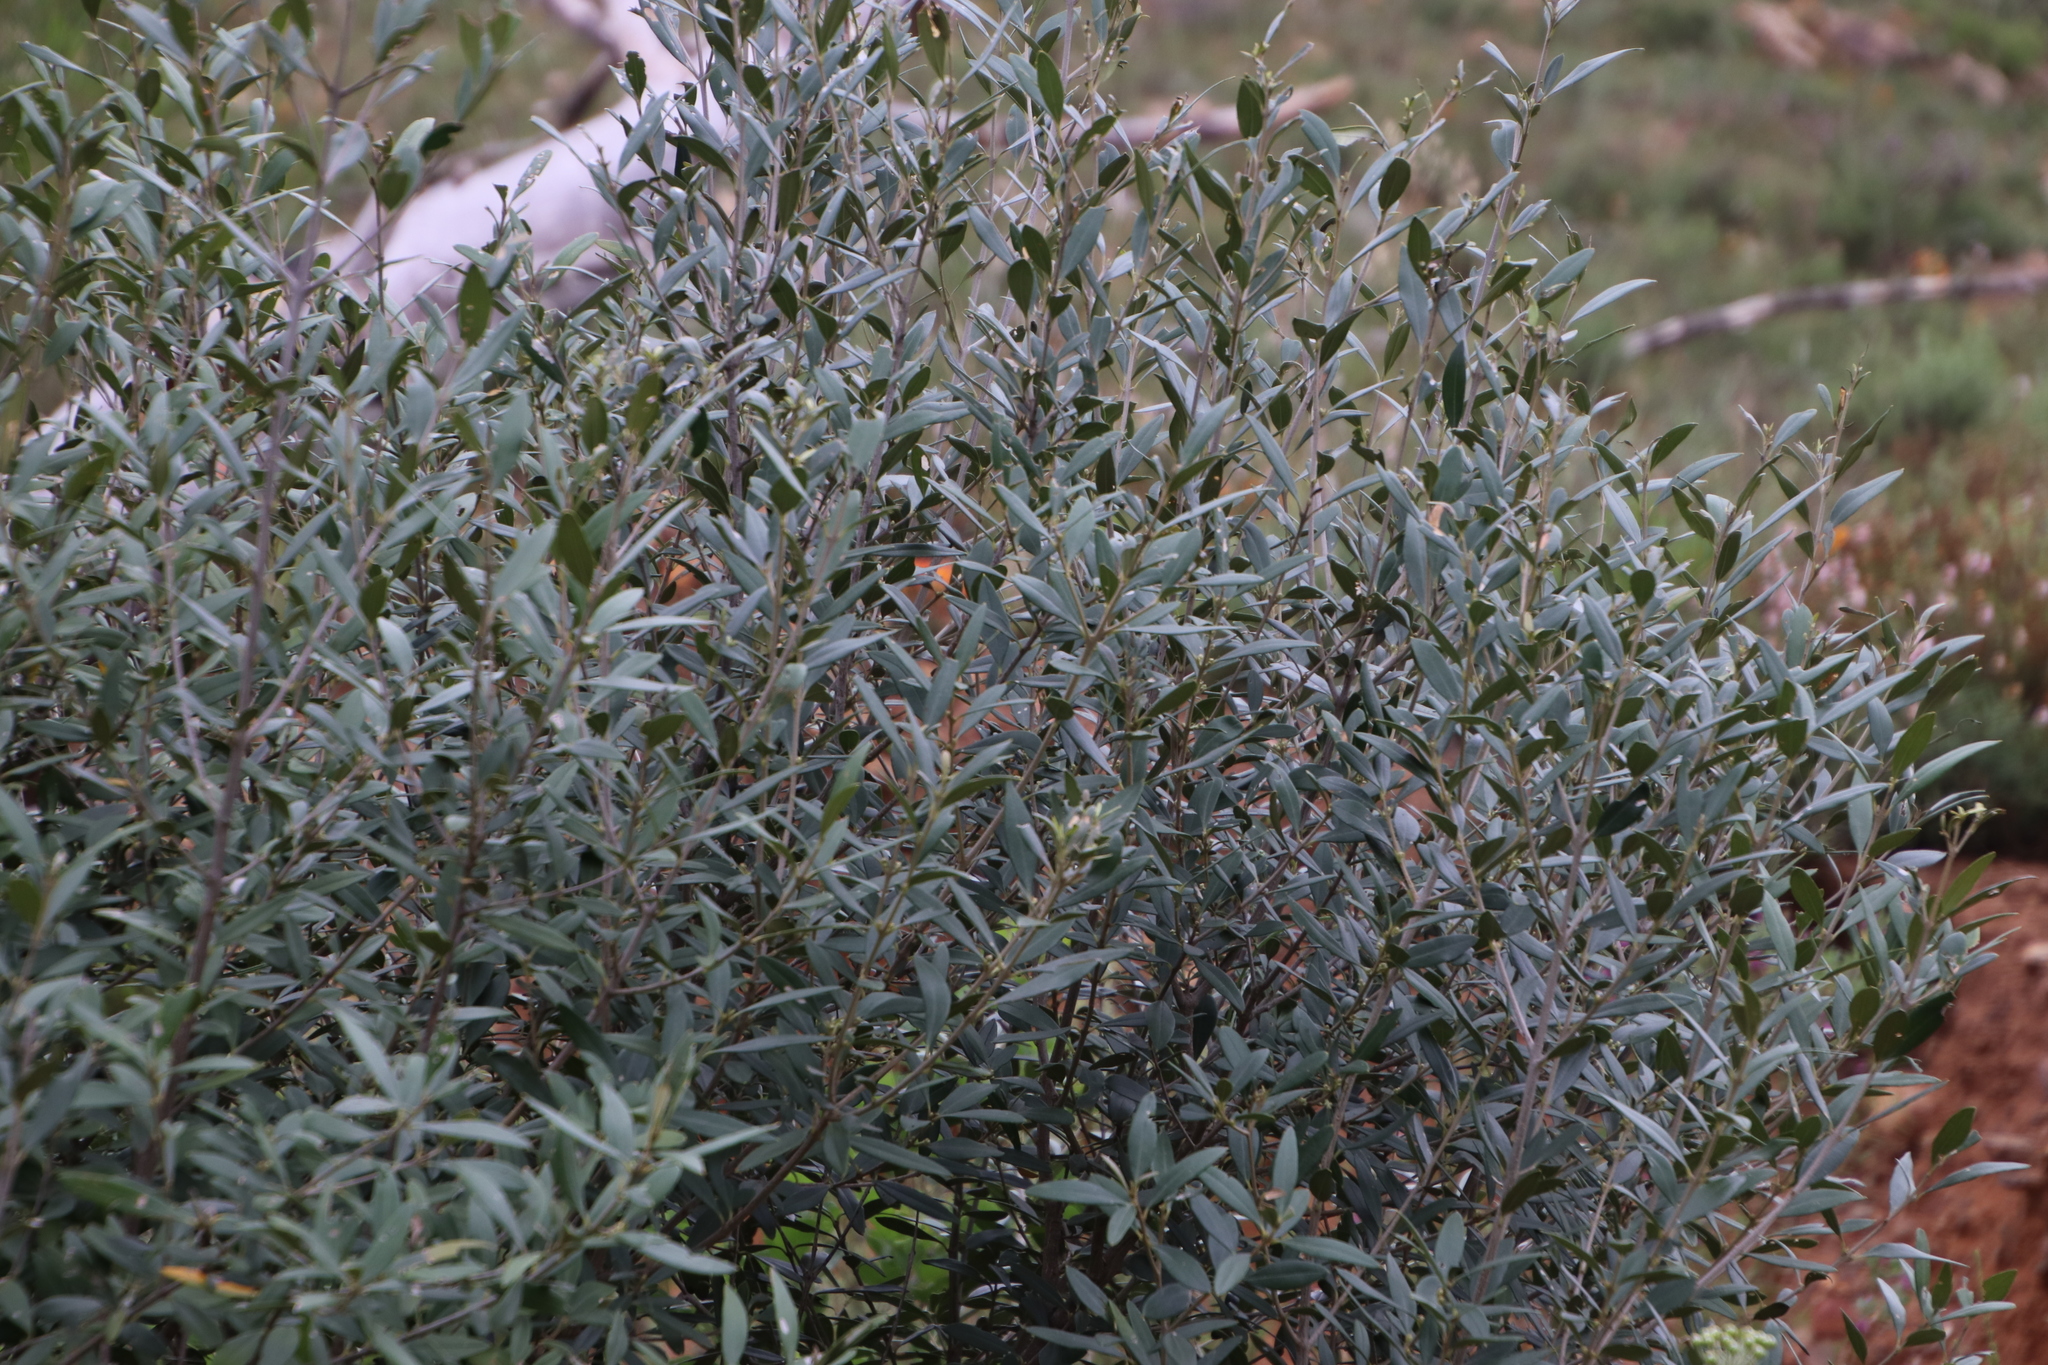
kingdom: Plantae
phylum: Tracheophyta
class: Magnoliopsida
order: Lamiales
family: Oleaceae
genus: Olea
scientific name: Olea europaea
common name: Olive
